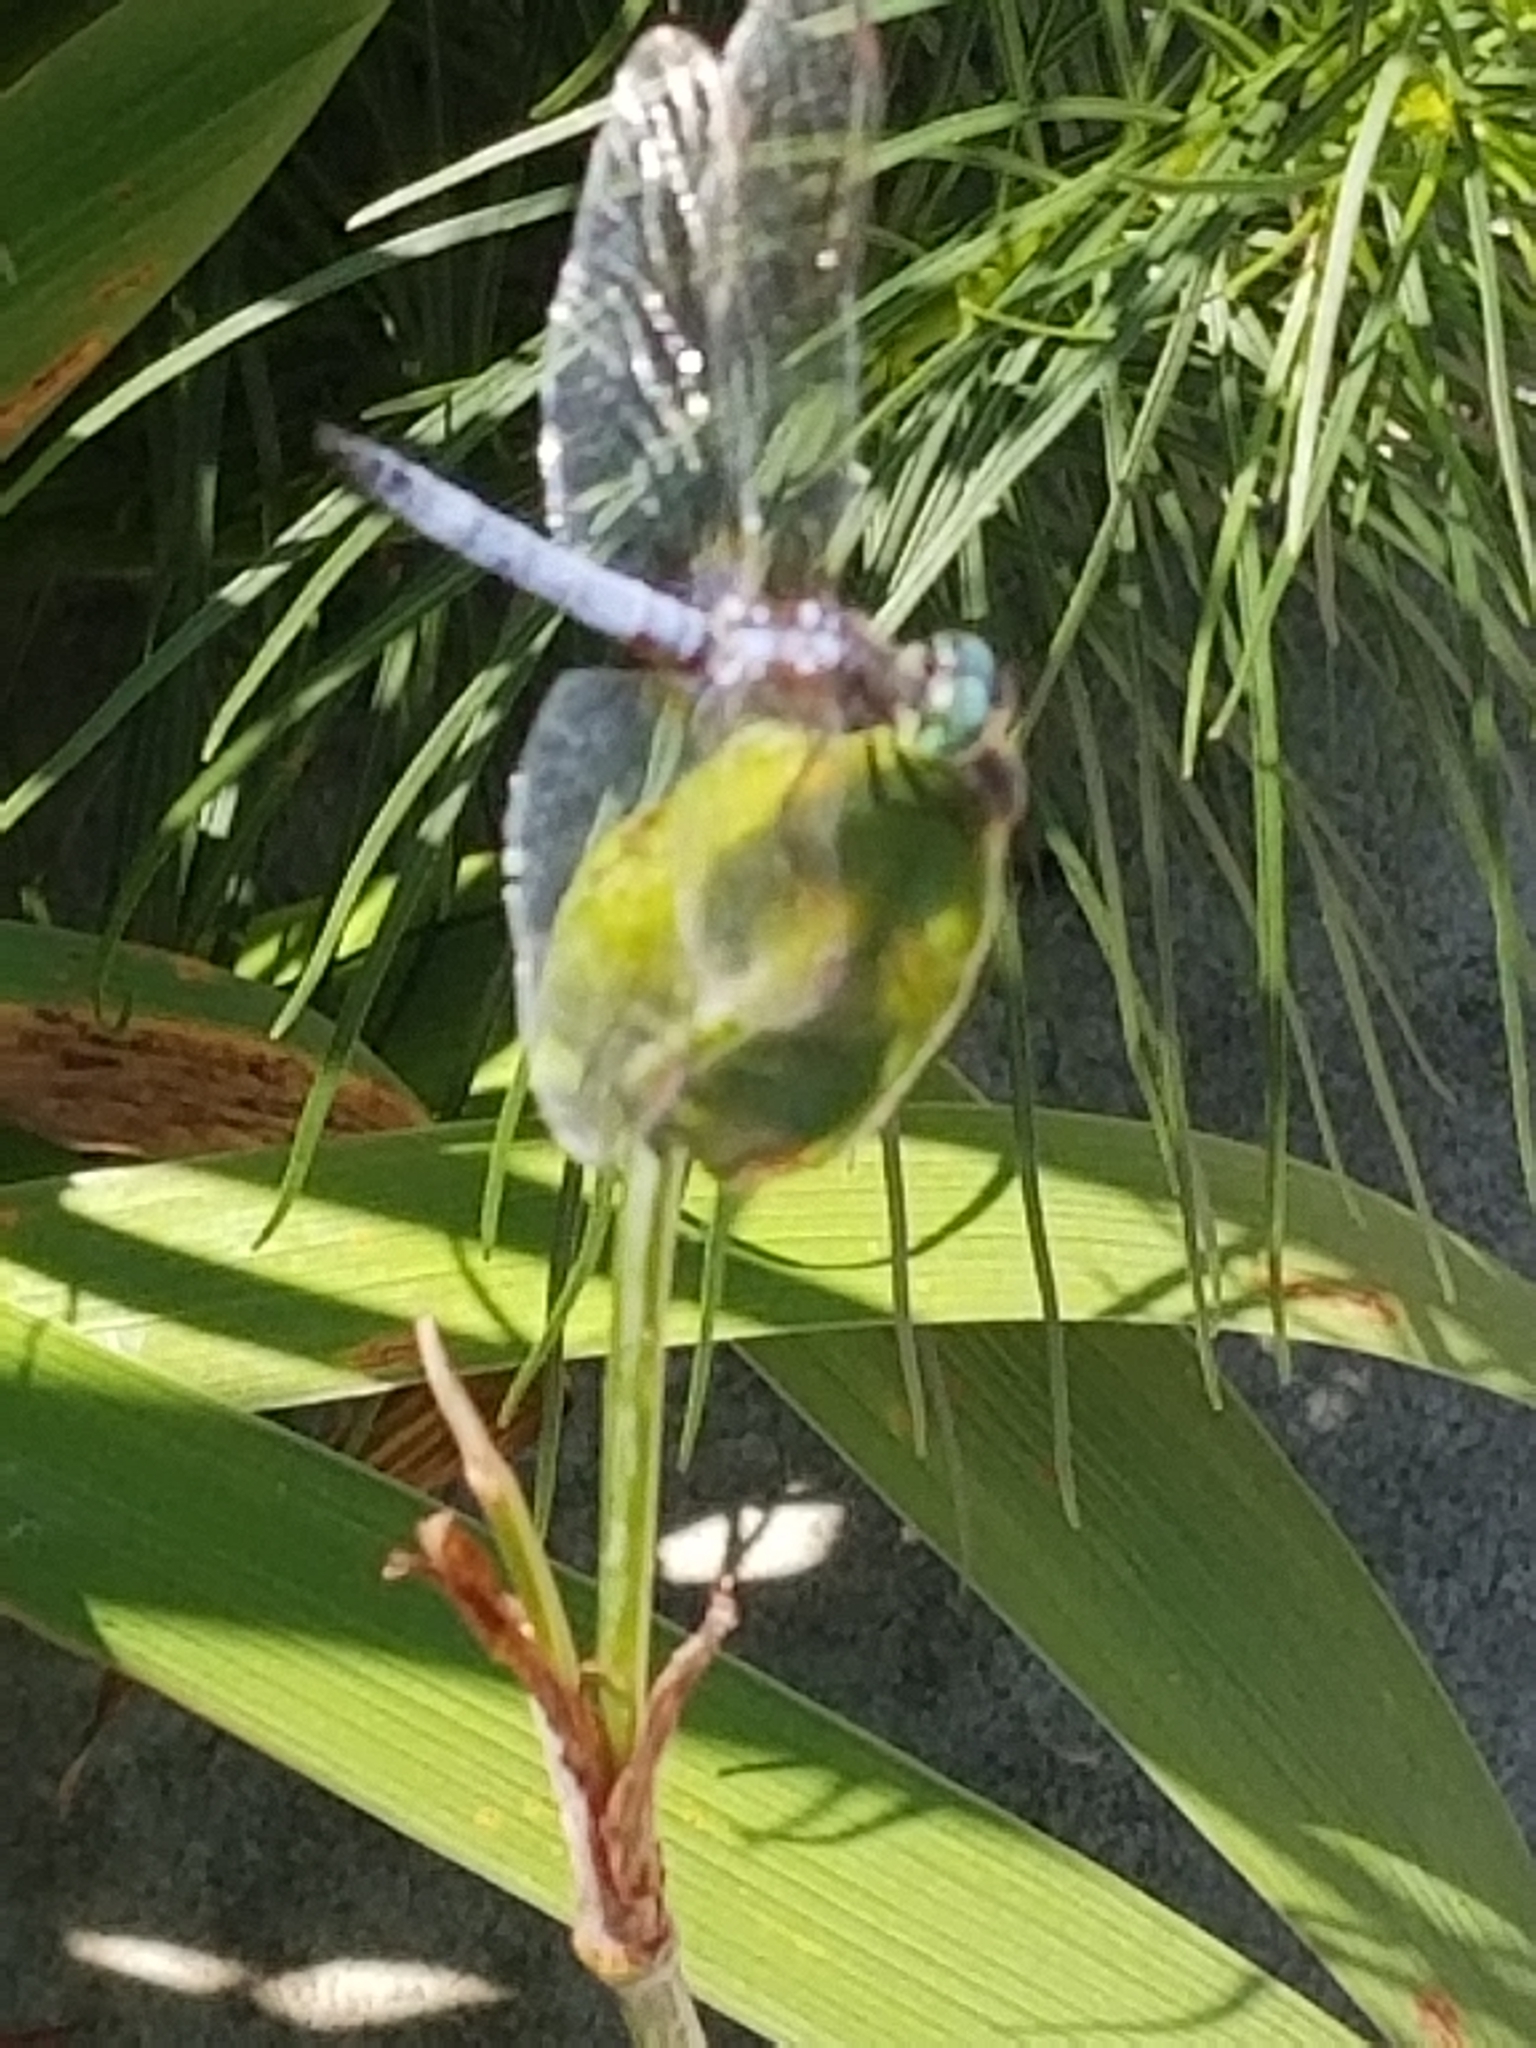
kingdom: Animalia
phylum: Arthropoda
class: Insecta
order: Odonata
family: Libellulidae
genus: Pachydiplax
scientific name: Pachydiplax longipennis
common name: Blue dasher
